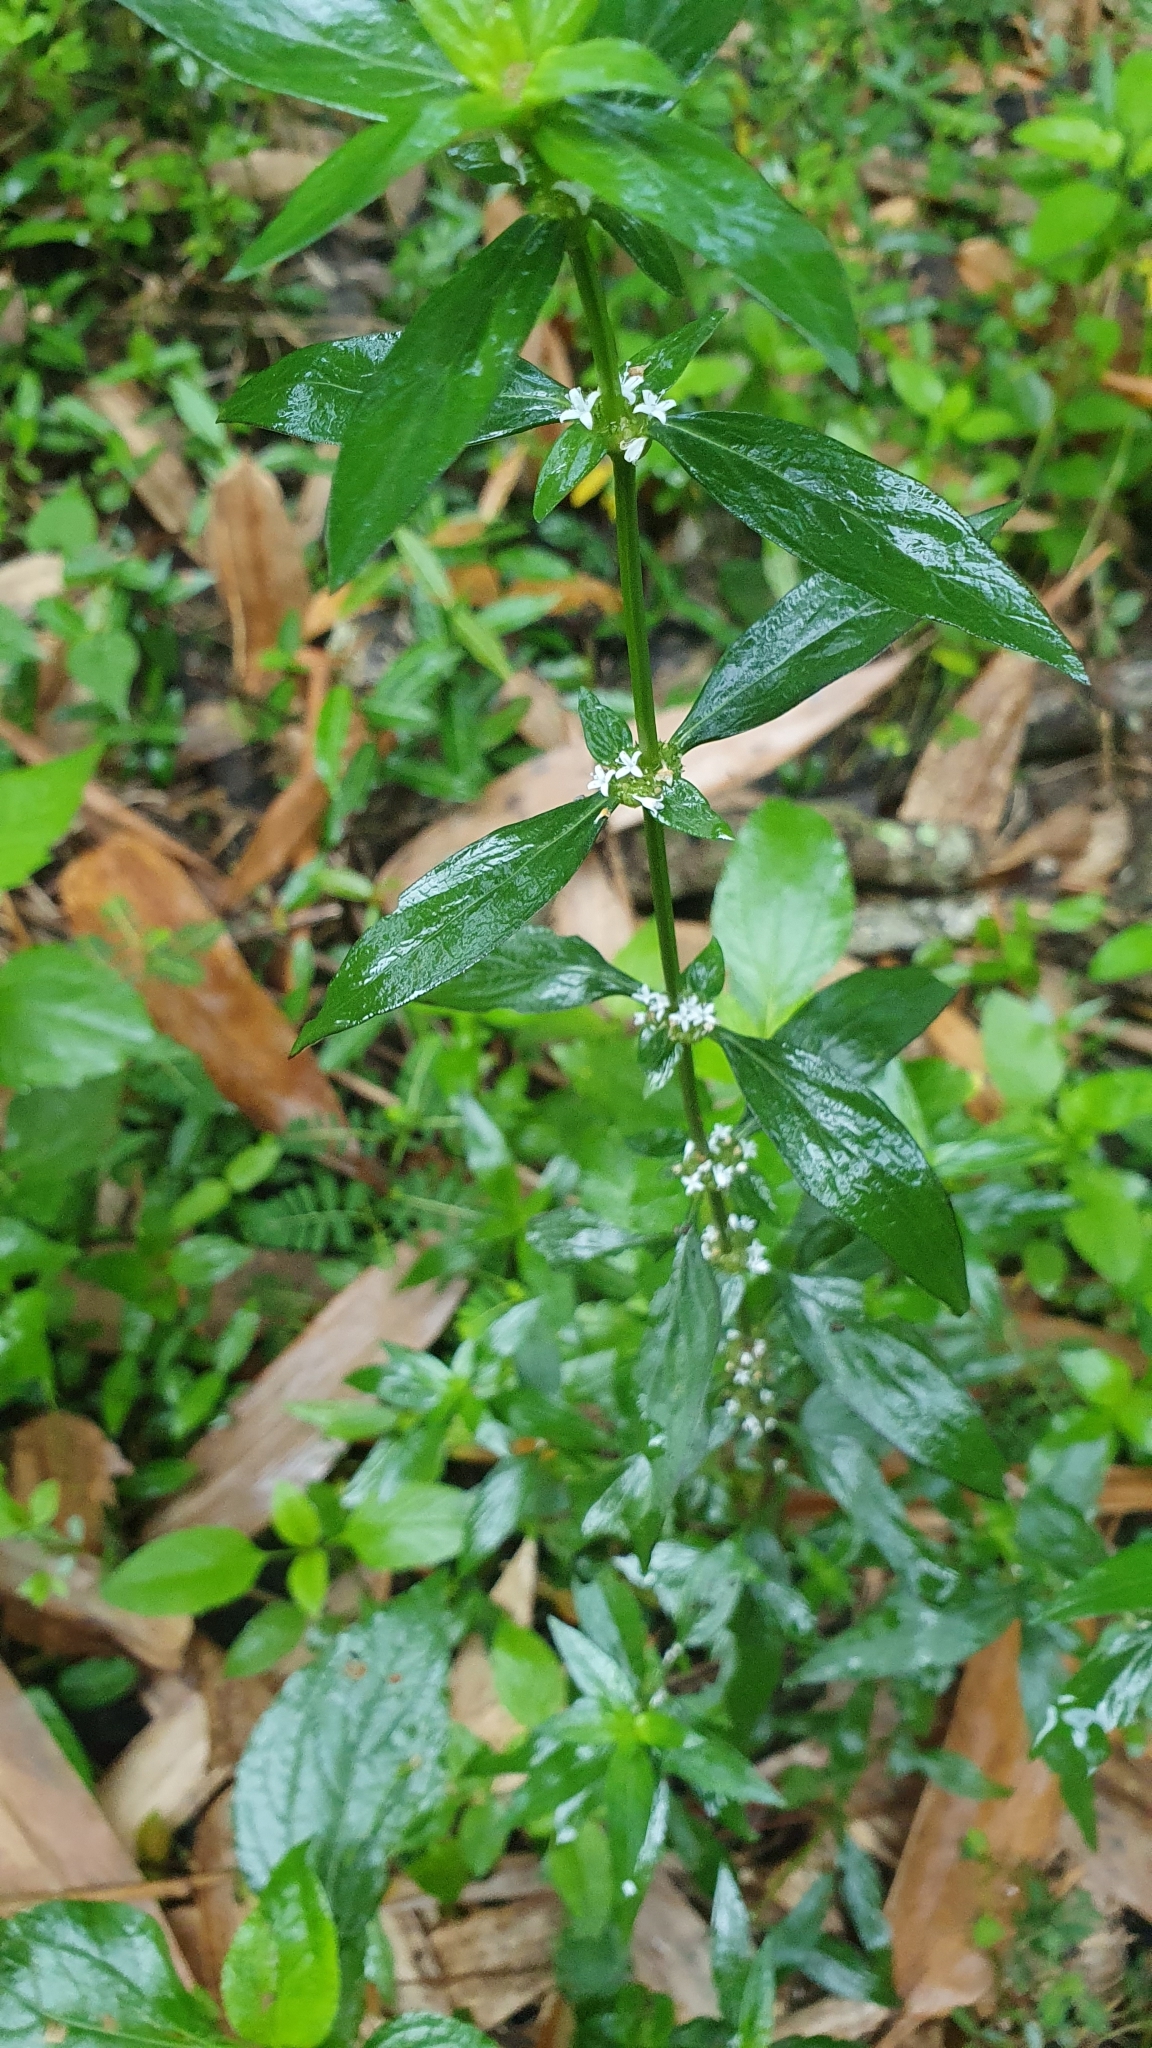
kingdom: Plantae
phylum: Tracheophyta
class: Magnoliopsida
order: Gentianales
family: Rubiaceae
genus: Spermacoce
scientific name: Spermacoce remota
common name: Woodland false buttonweed
